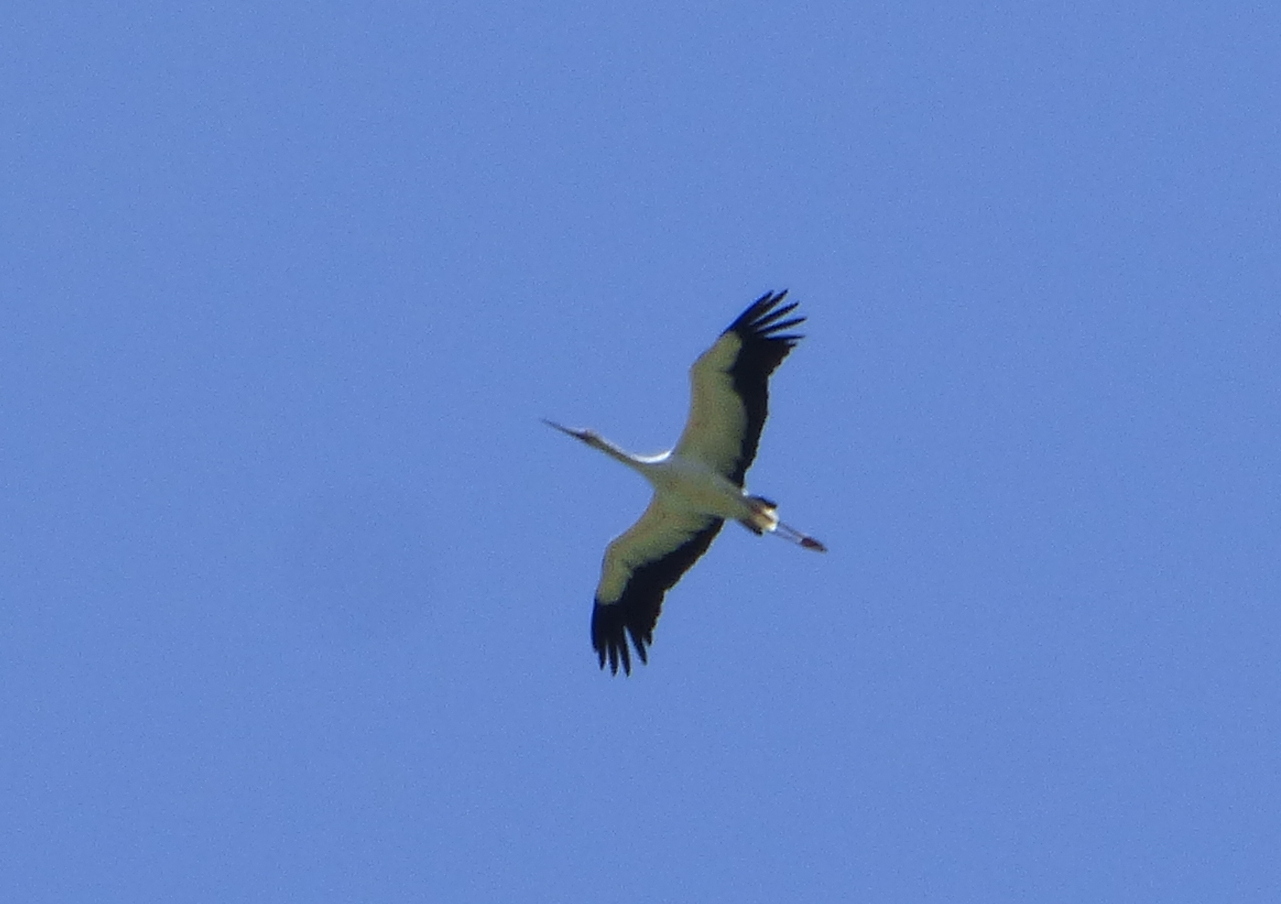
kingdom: Animalia
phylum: Chordata
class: Aves
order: Ciconiiformes
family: Ciconiidae
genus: Ciconia
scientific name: Ciconia maguari
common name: Maguari stork
